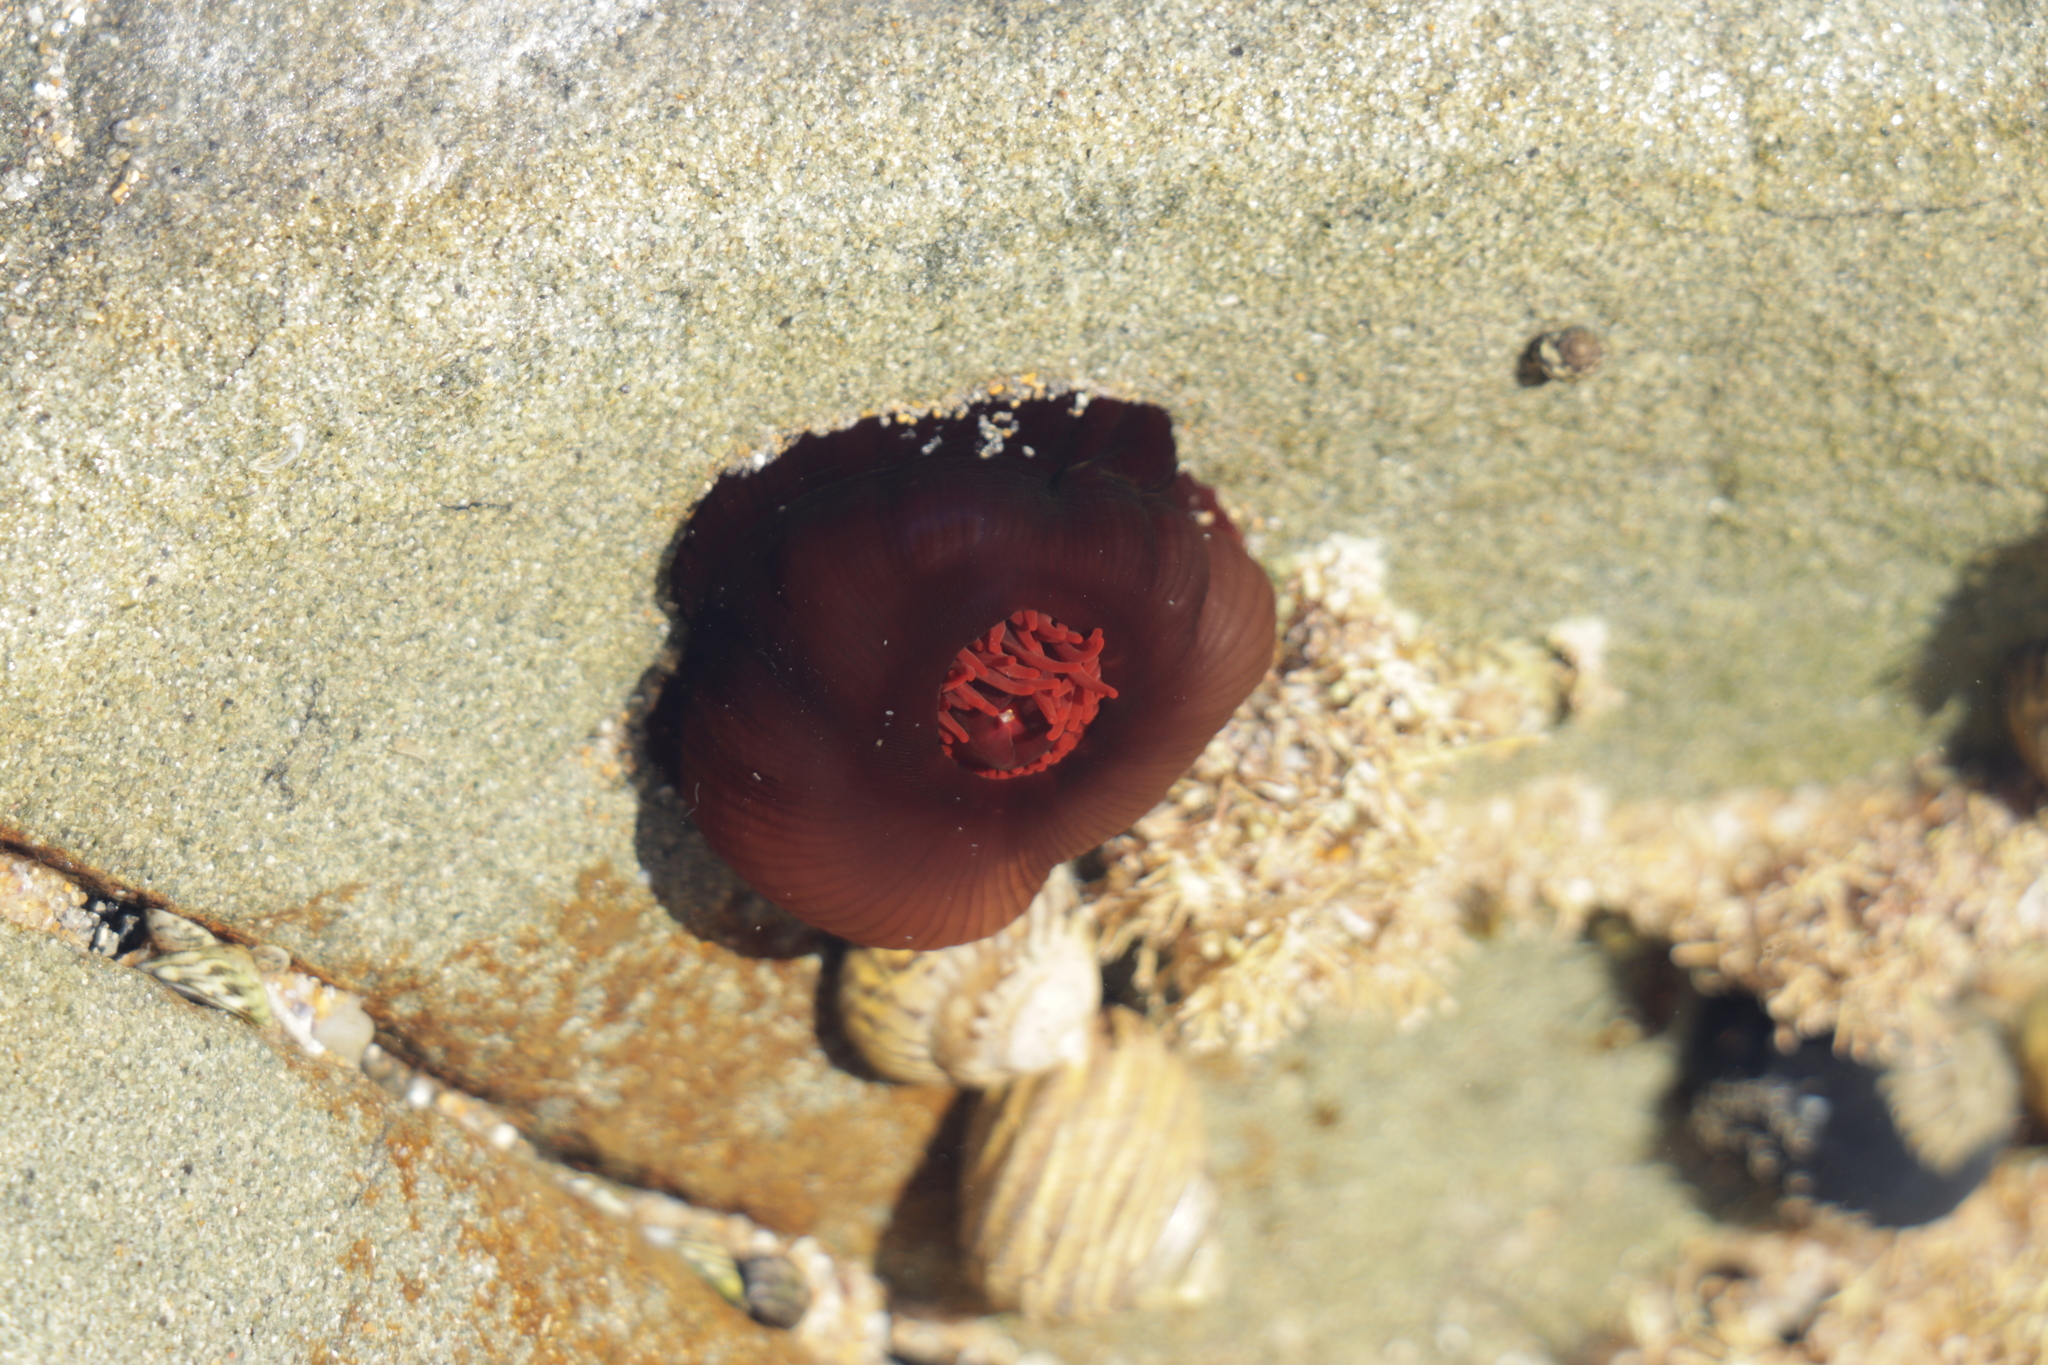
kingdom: Animalia
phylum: Cnidaria
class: Anthozoa
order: Actiniaria
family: Actiniidae
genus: Actinia
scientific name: Actinia tenebrosa
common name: Waratah anemone
